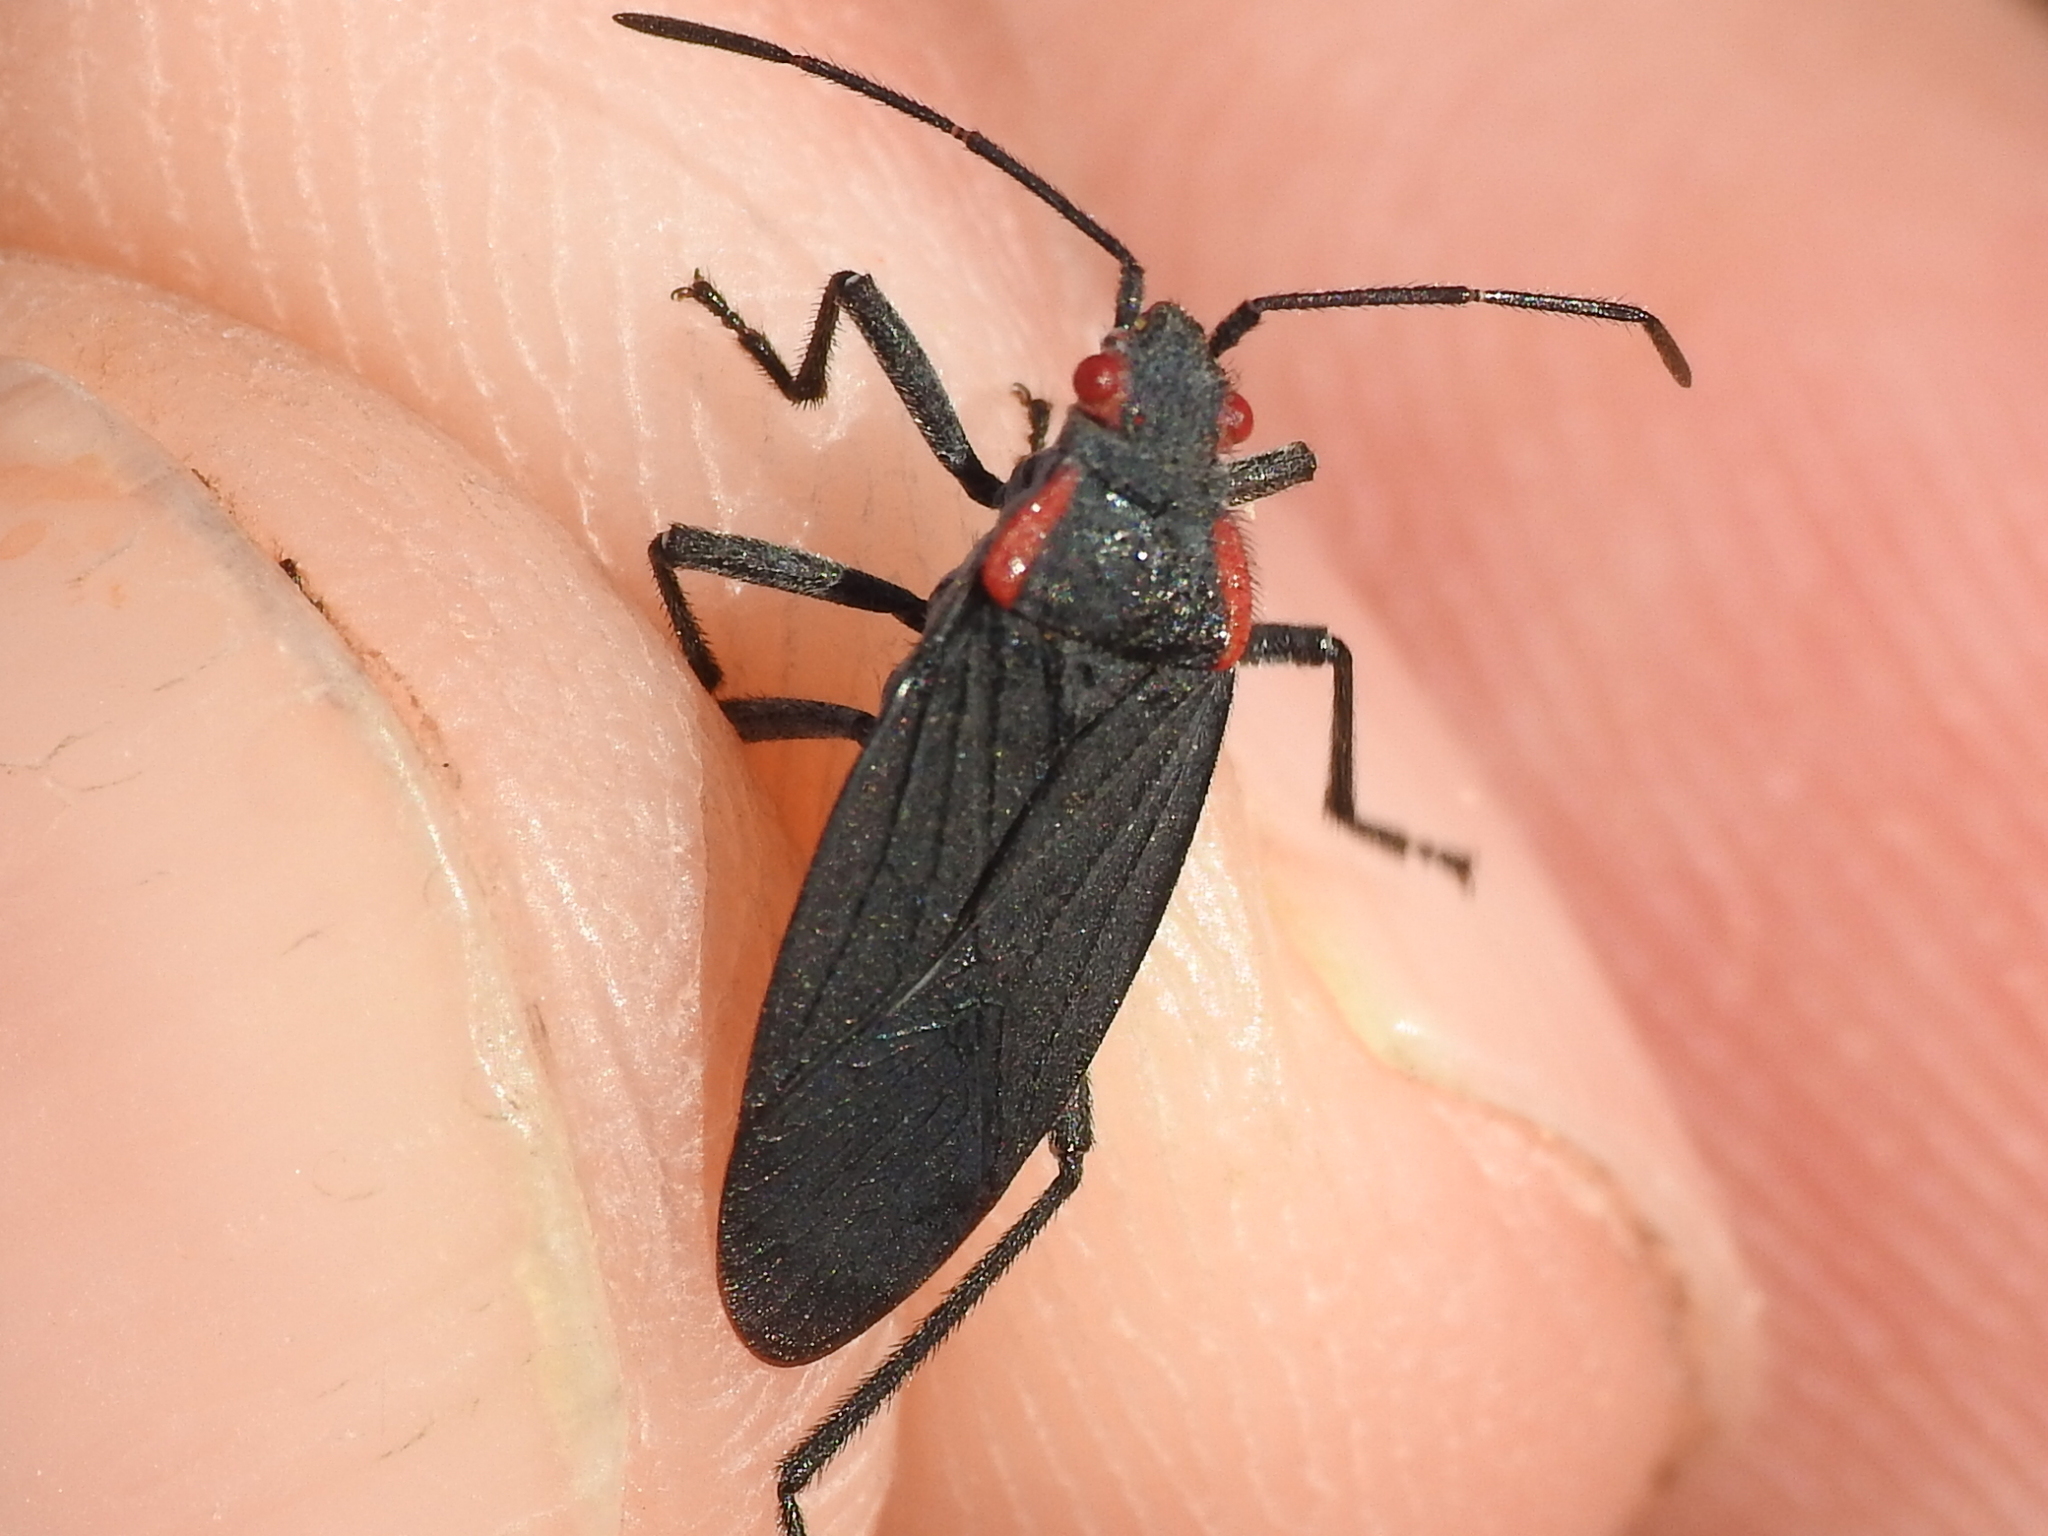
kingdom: Animalia
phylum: Arthropoda
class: Insecta
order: Hemiptera
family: Rhopalidae
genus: Jadera
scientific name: Jadera haematoloma
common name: Red-shouldered bug
